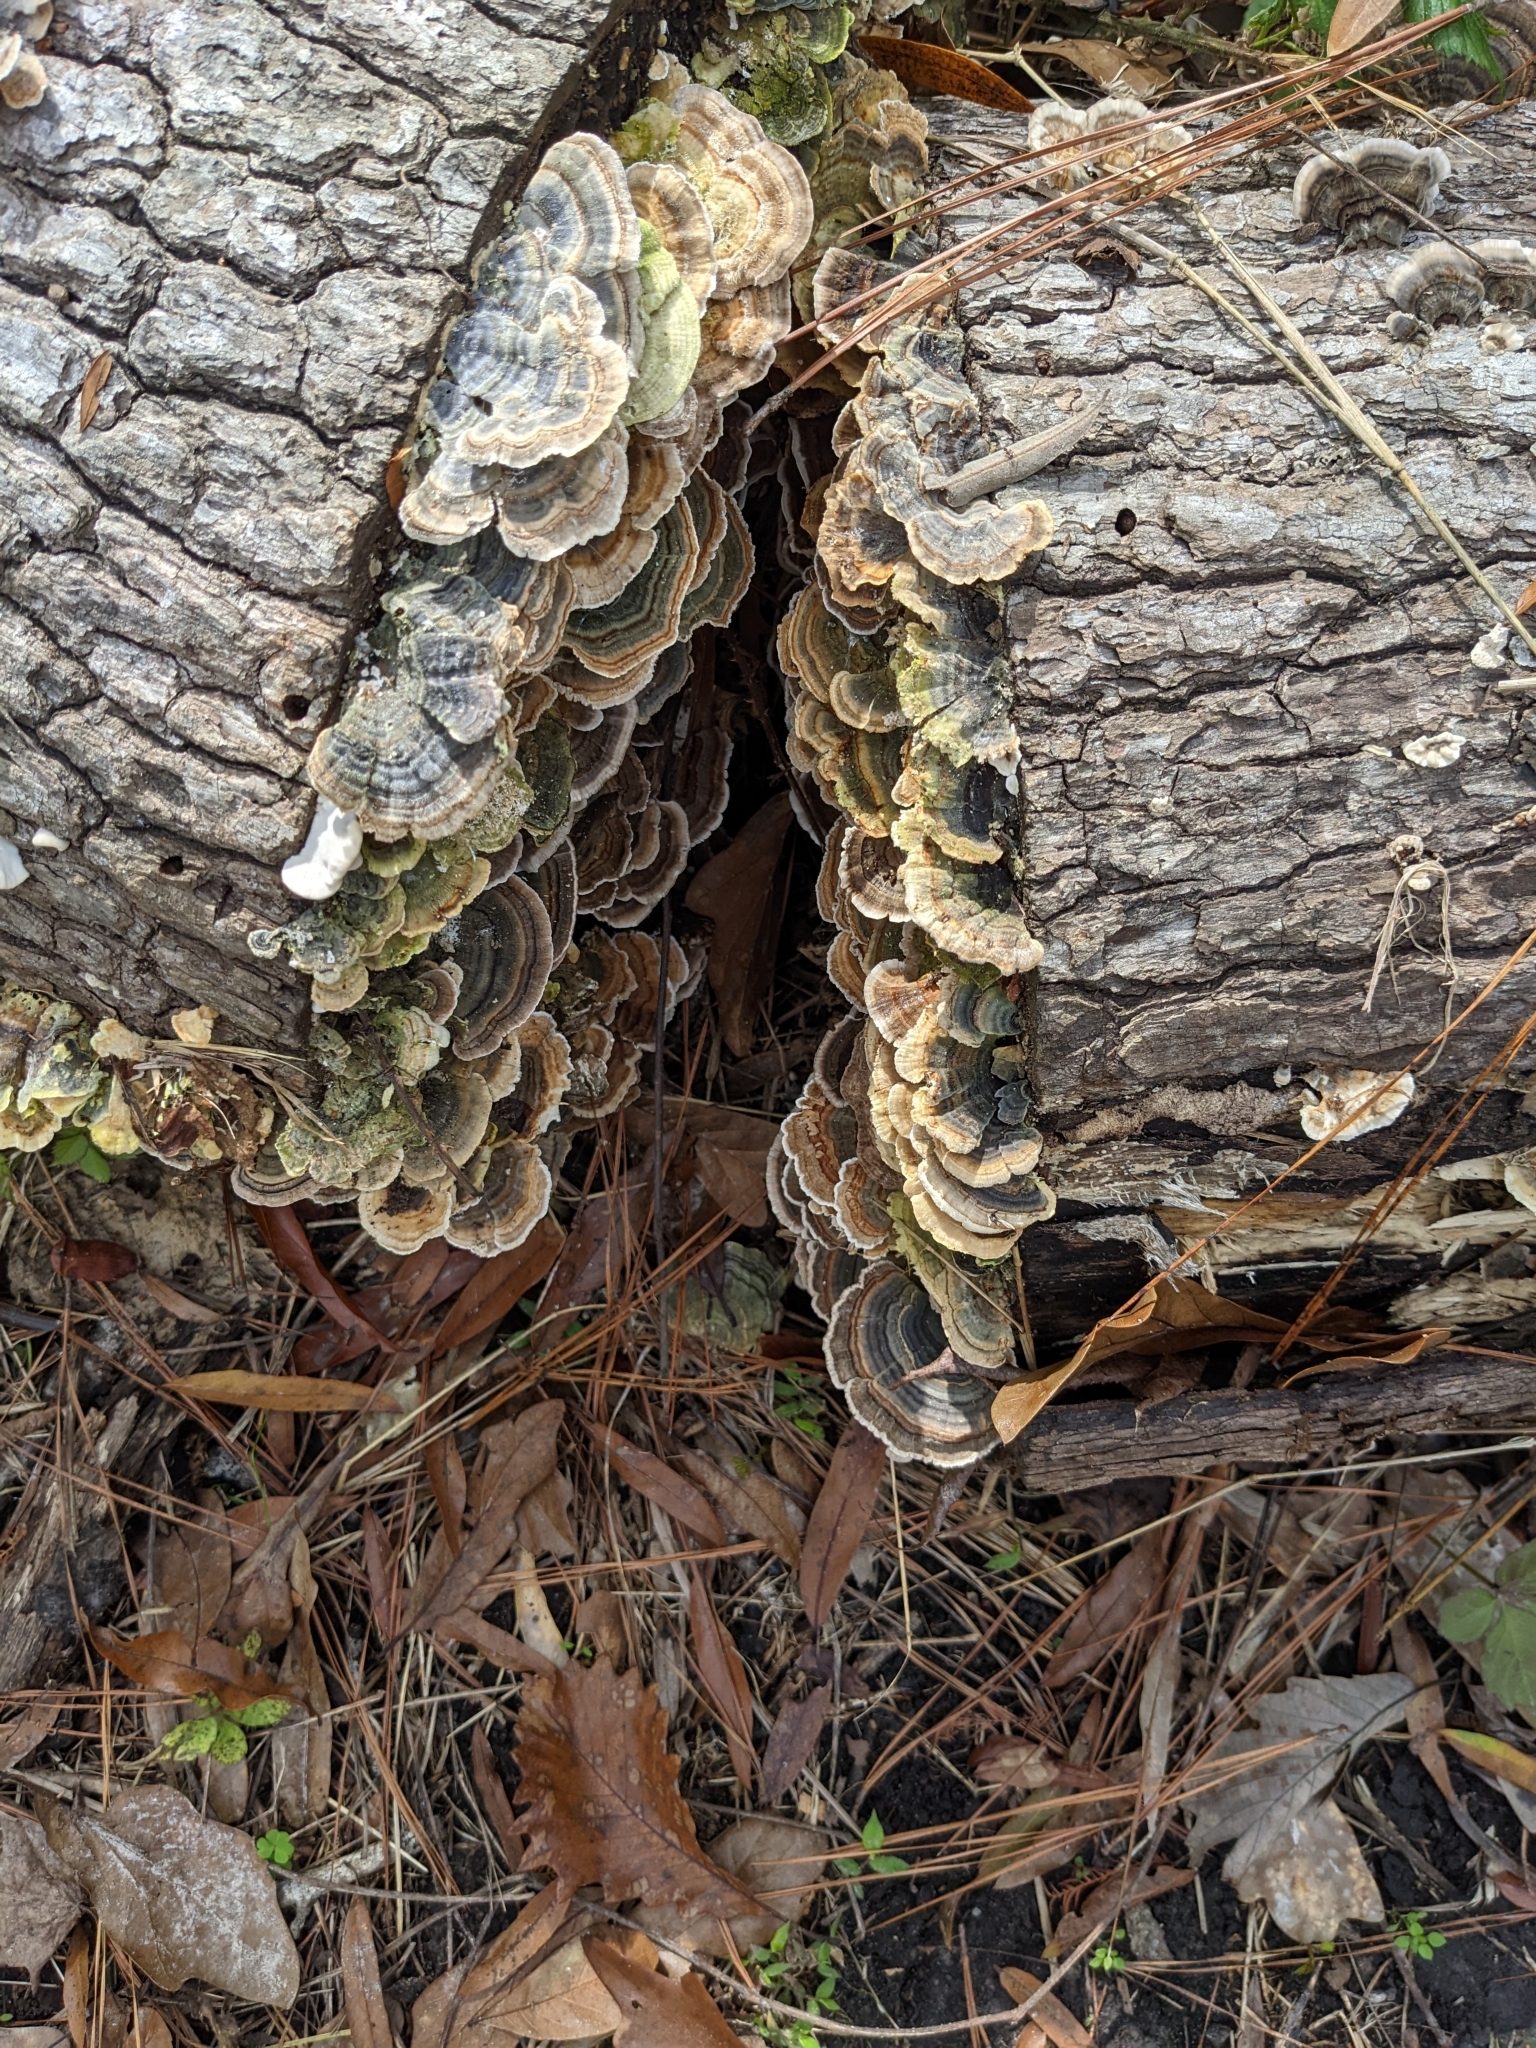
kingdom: Fungi
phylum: Basidiomycota
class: Agaricomycetes
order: Polyporales
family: Polyporaceae
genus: Trametes
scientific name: Trametes versicolor
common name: Turkeytail
